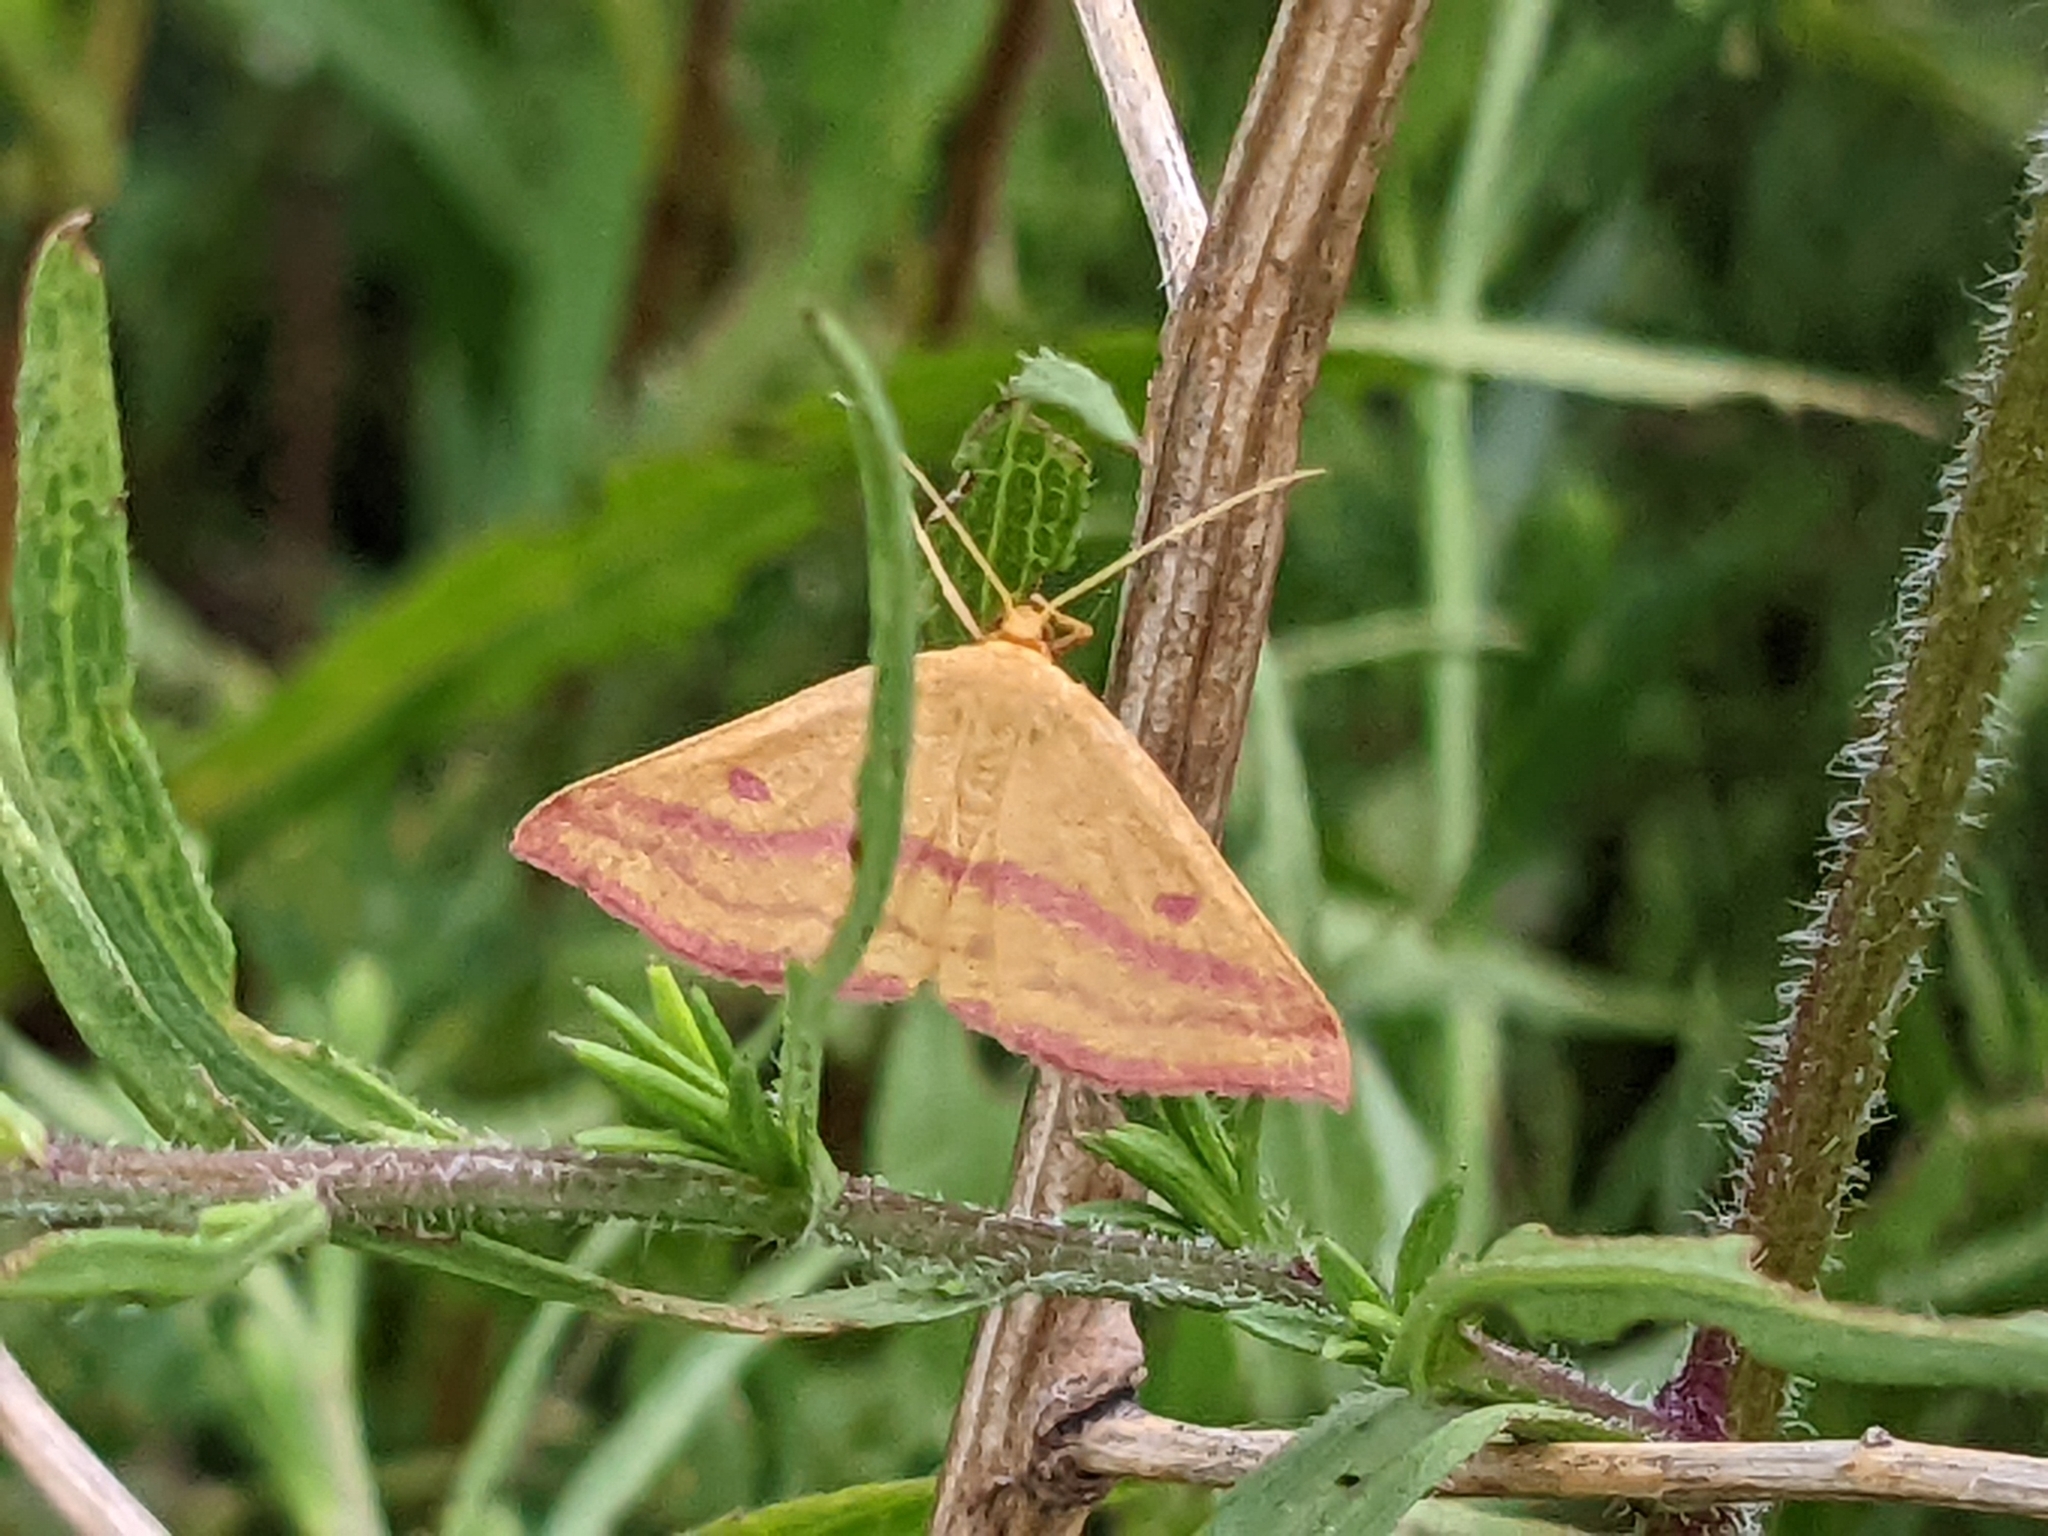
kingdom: Animalia
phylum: Arthropoda
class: Insecta
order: Lepidoptera
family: Geometridae
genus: Haematopis
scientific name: Haematopis grataria
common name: Chickweed geometer
